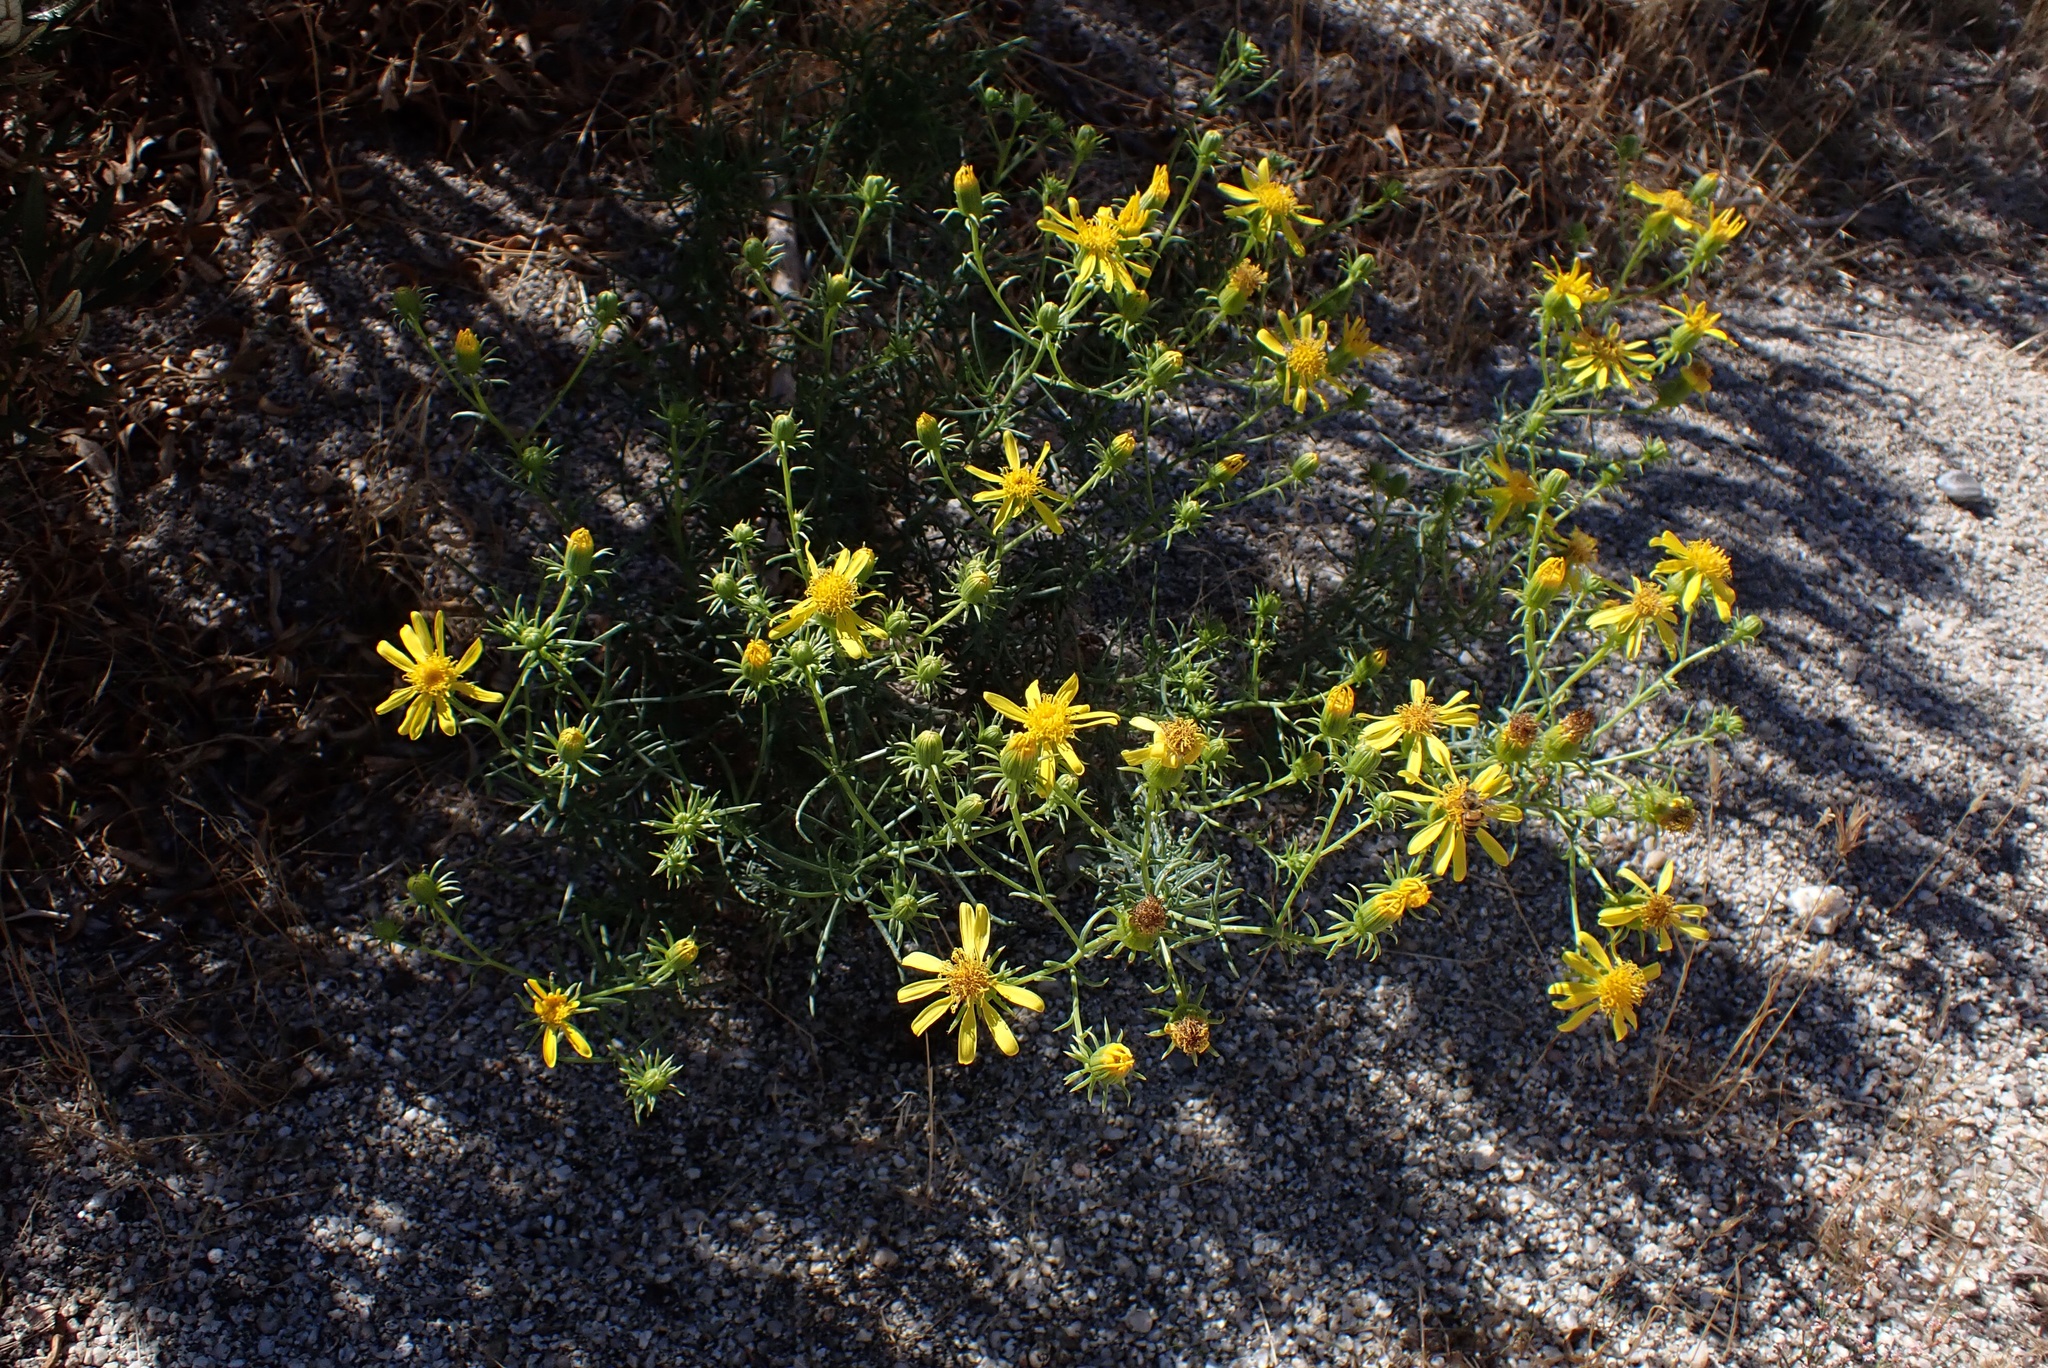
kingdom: Plantae
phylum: Tracheophyta
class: Magnoliopsida
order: Asterales
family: Asteraceae
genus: Senecio
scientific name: Senecio flaccidus
